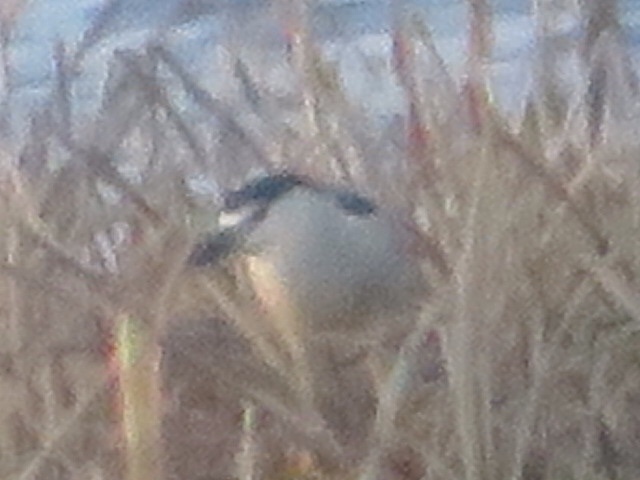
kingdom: Animalia
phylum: Chordata
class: Aves
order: Pelecaniformes
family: Ardeidae
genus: Nycticorax
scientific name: Nycticorax nycticorax
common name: Black-crowned night heron
